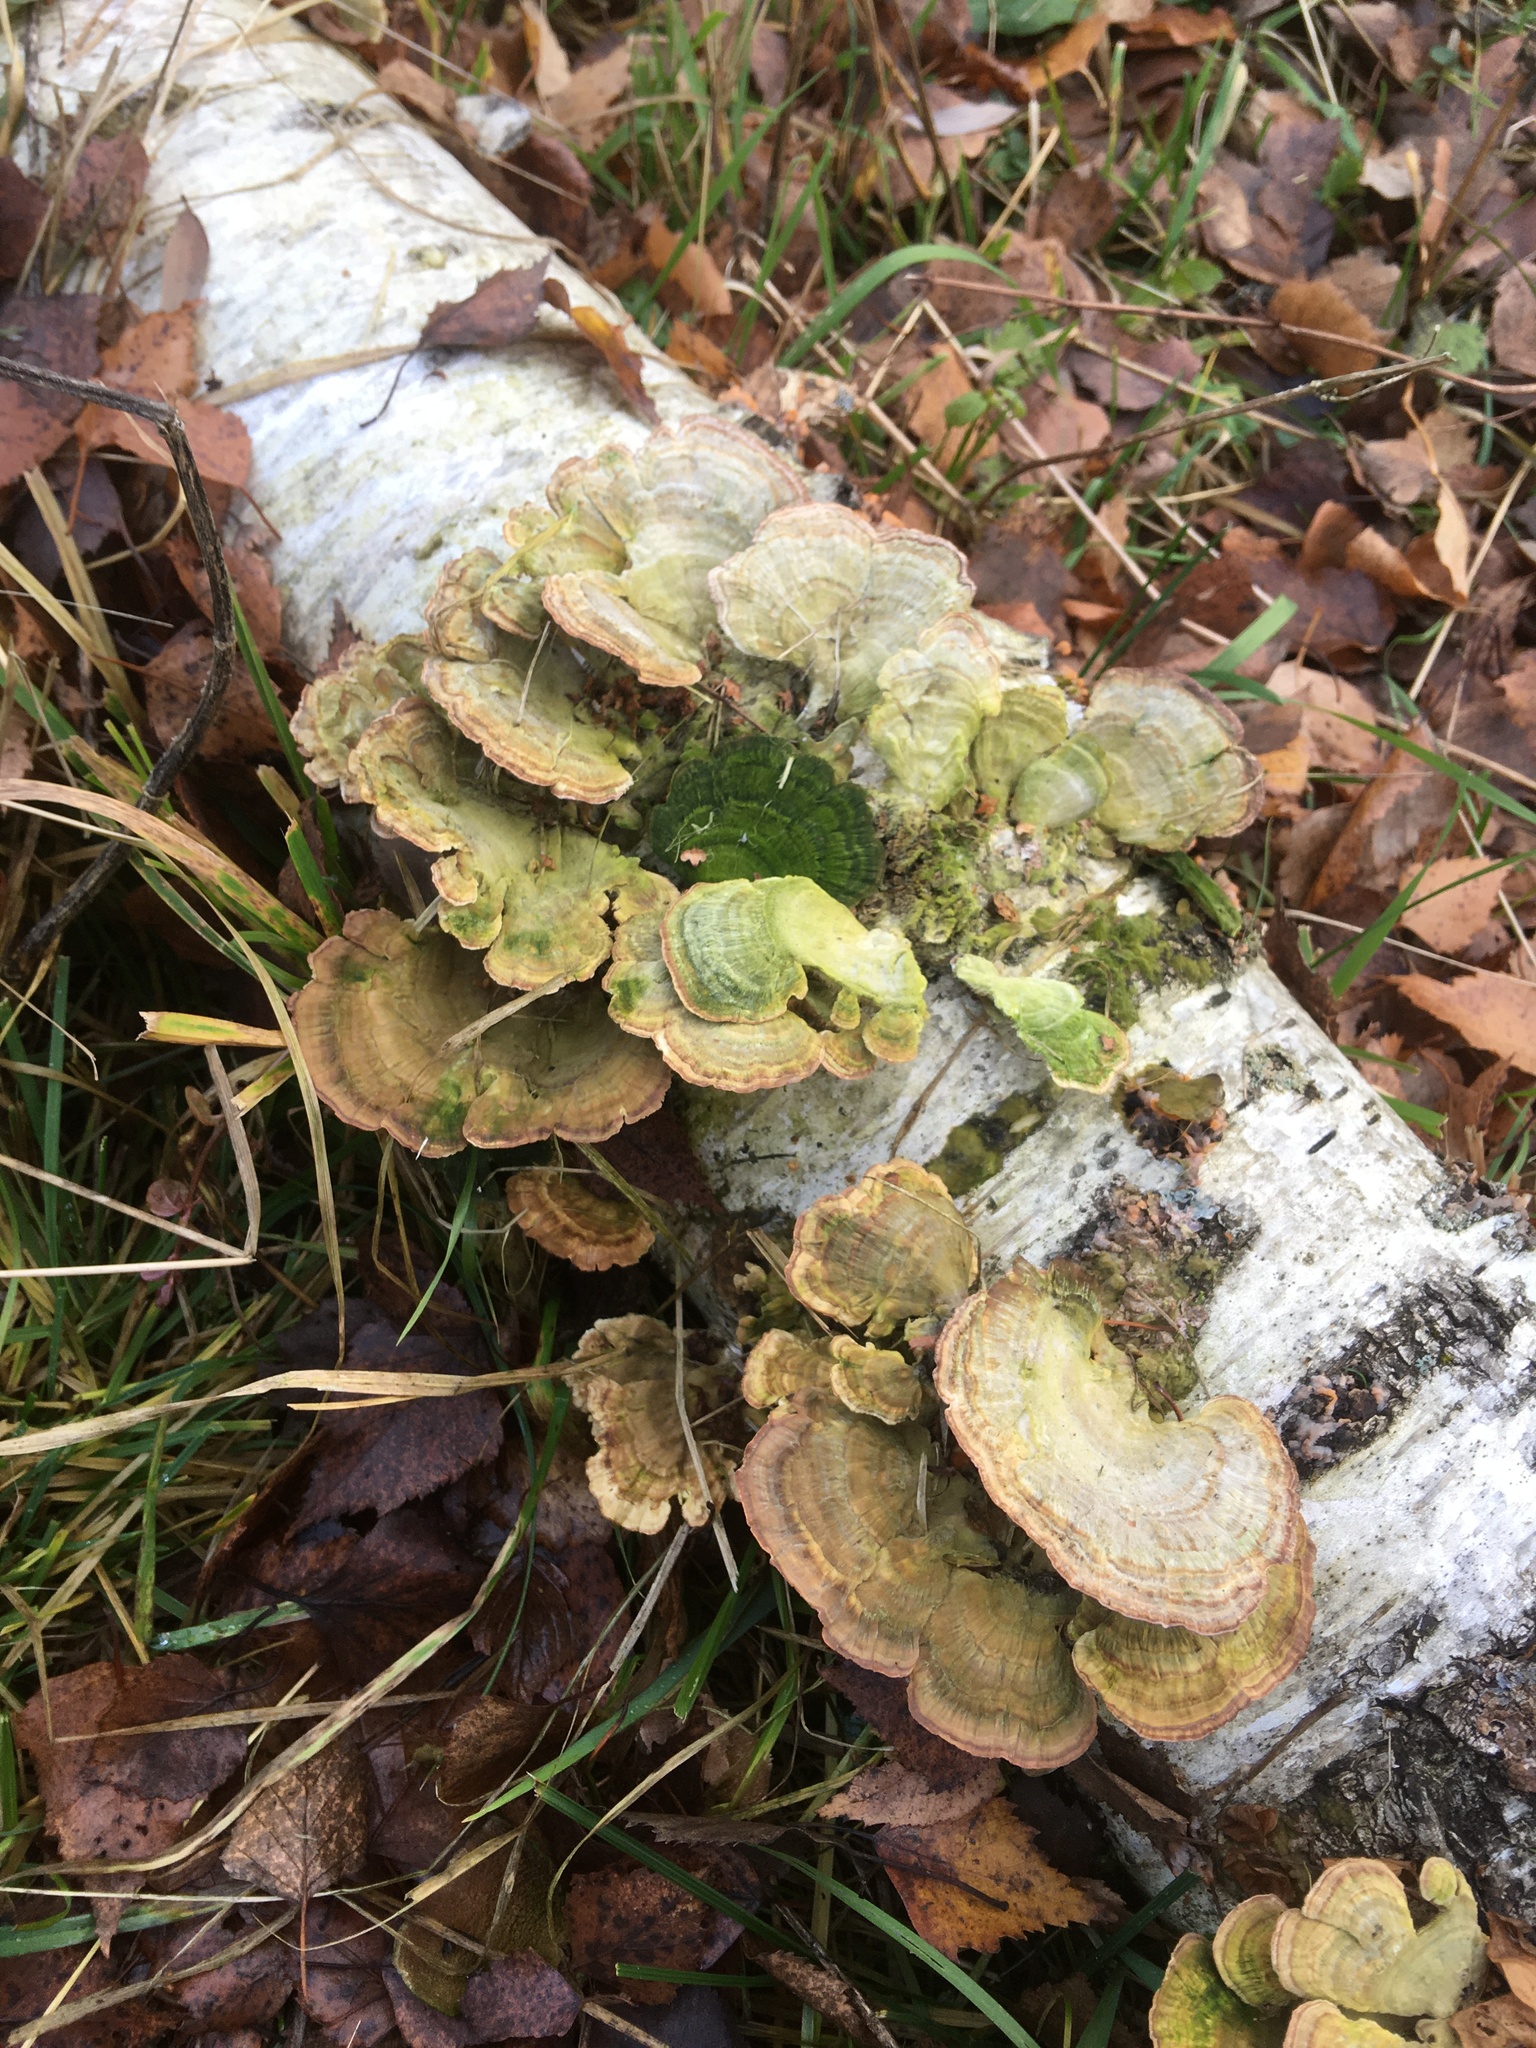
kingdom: Fungi
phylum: Basidiomycota
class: Agaricomycetes
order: Hymenochaetales
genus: Trichaptum
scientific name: Trichaptum biforme
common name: Violet-toothed polypore
